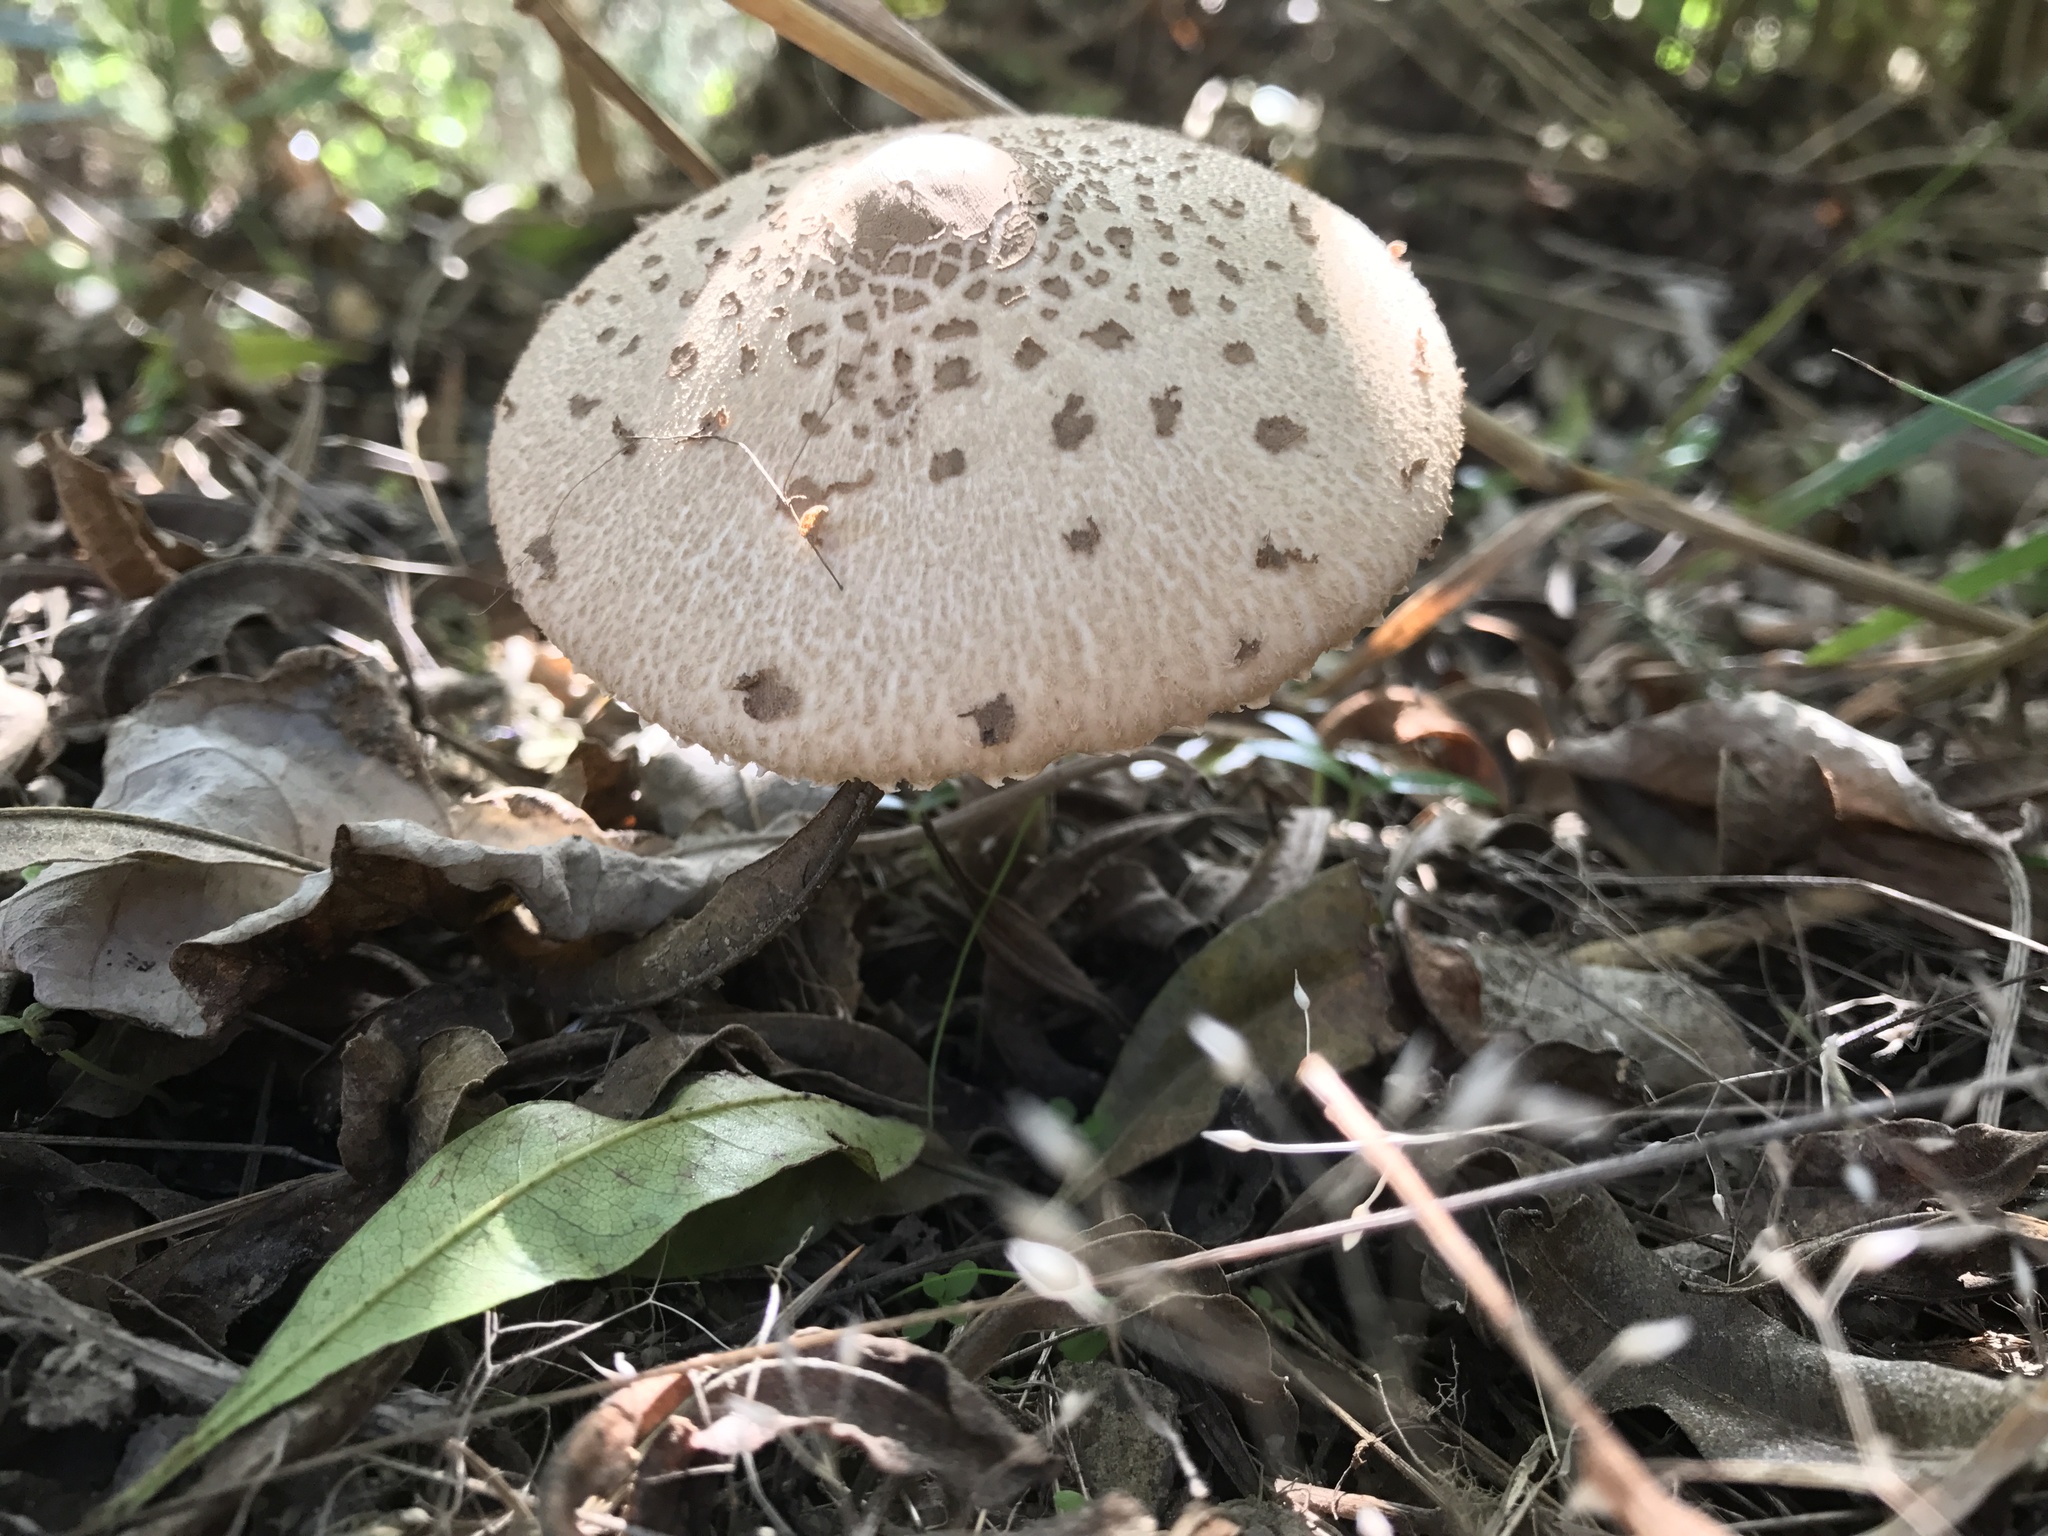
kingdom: Fungi
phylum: Basidiomycota
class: Agaricomycetes
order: Agaricales
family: Agaricaceae
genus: Macrolepiota
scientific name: Macrolepiota clelandii
